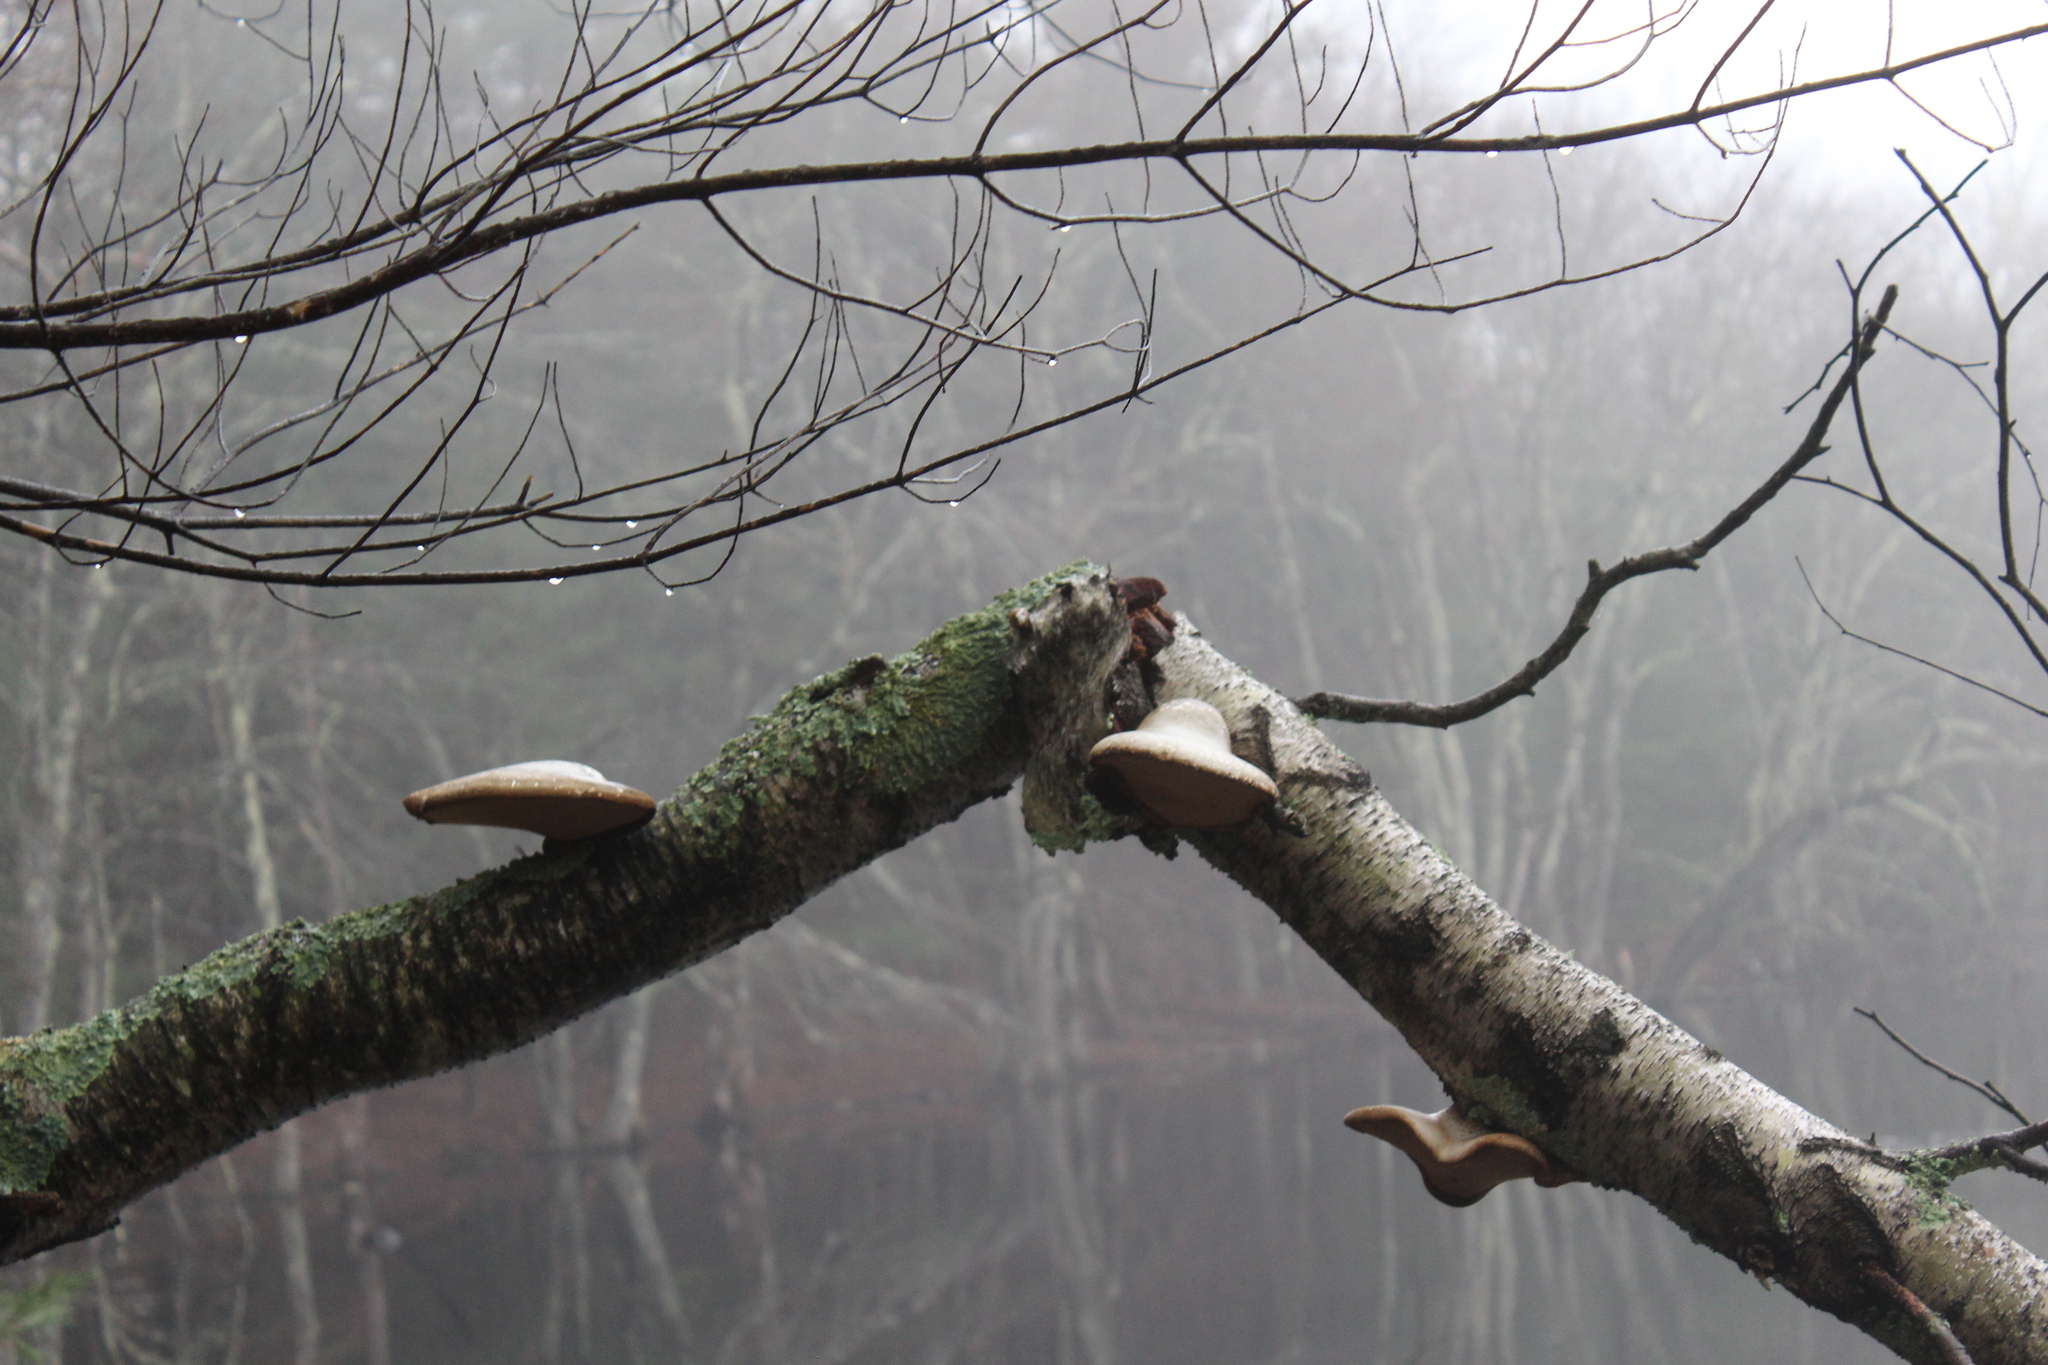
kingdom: Fungi
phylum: Basidiomycota
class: Agaricomycetes
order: Polyporales
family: Fomitopsidaceae
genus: Fomitopsis
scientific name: Fomitopsis betulina
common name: Birch polypore
